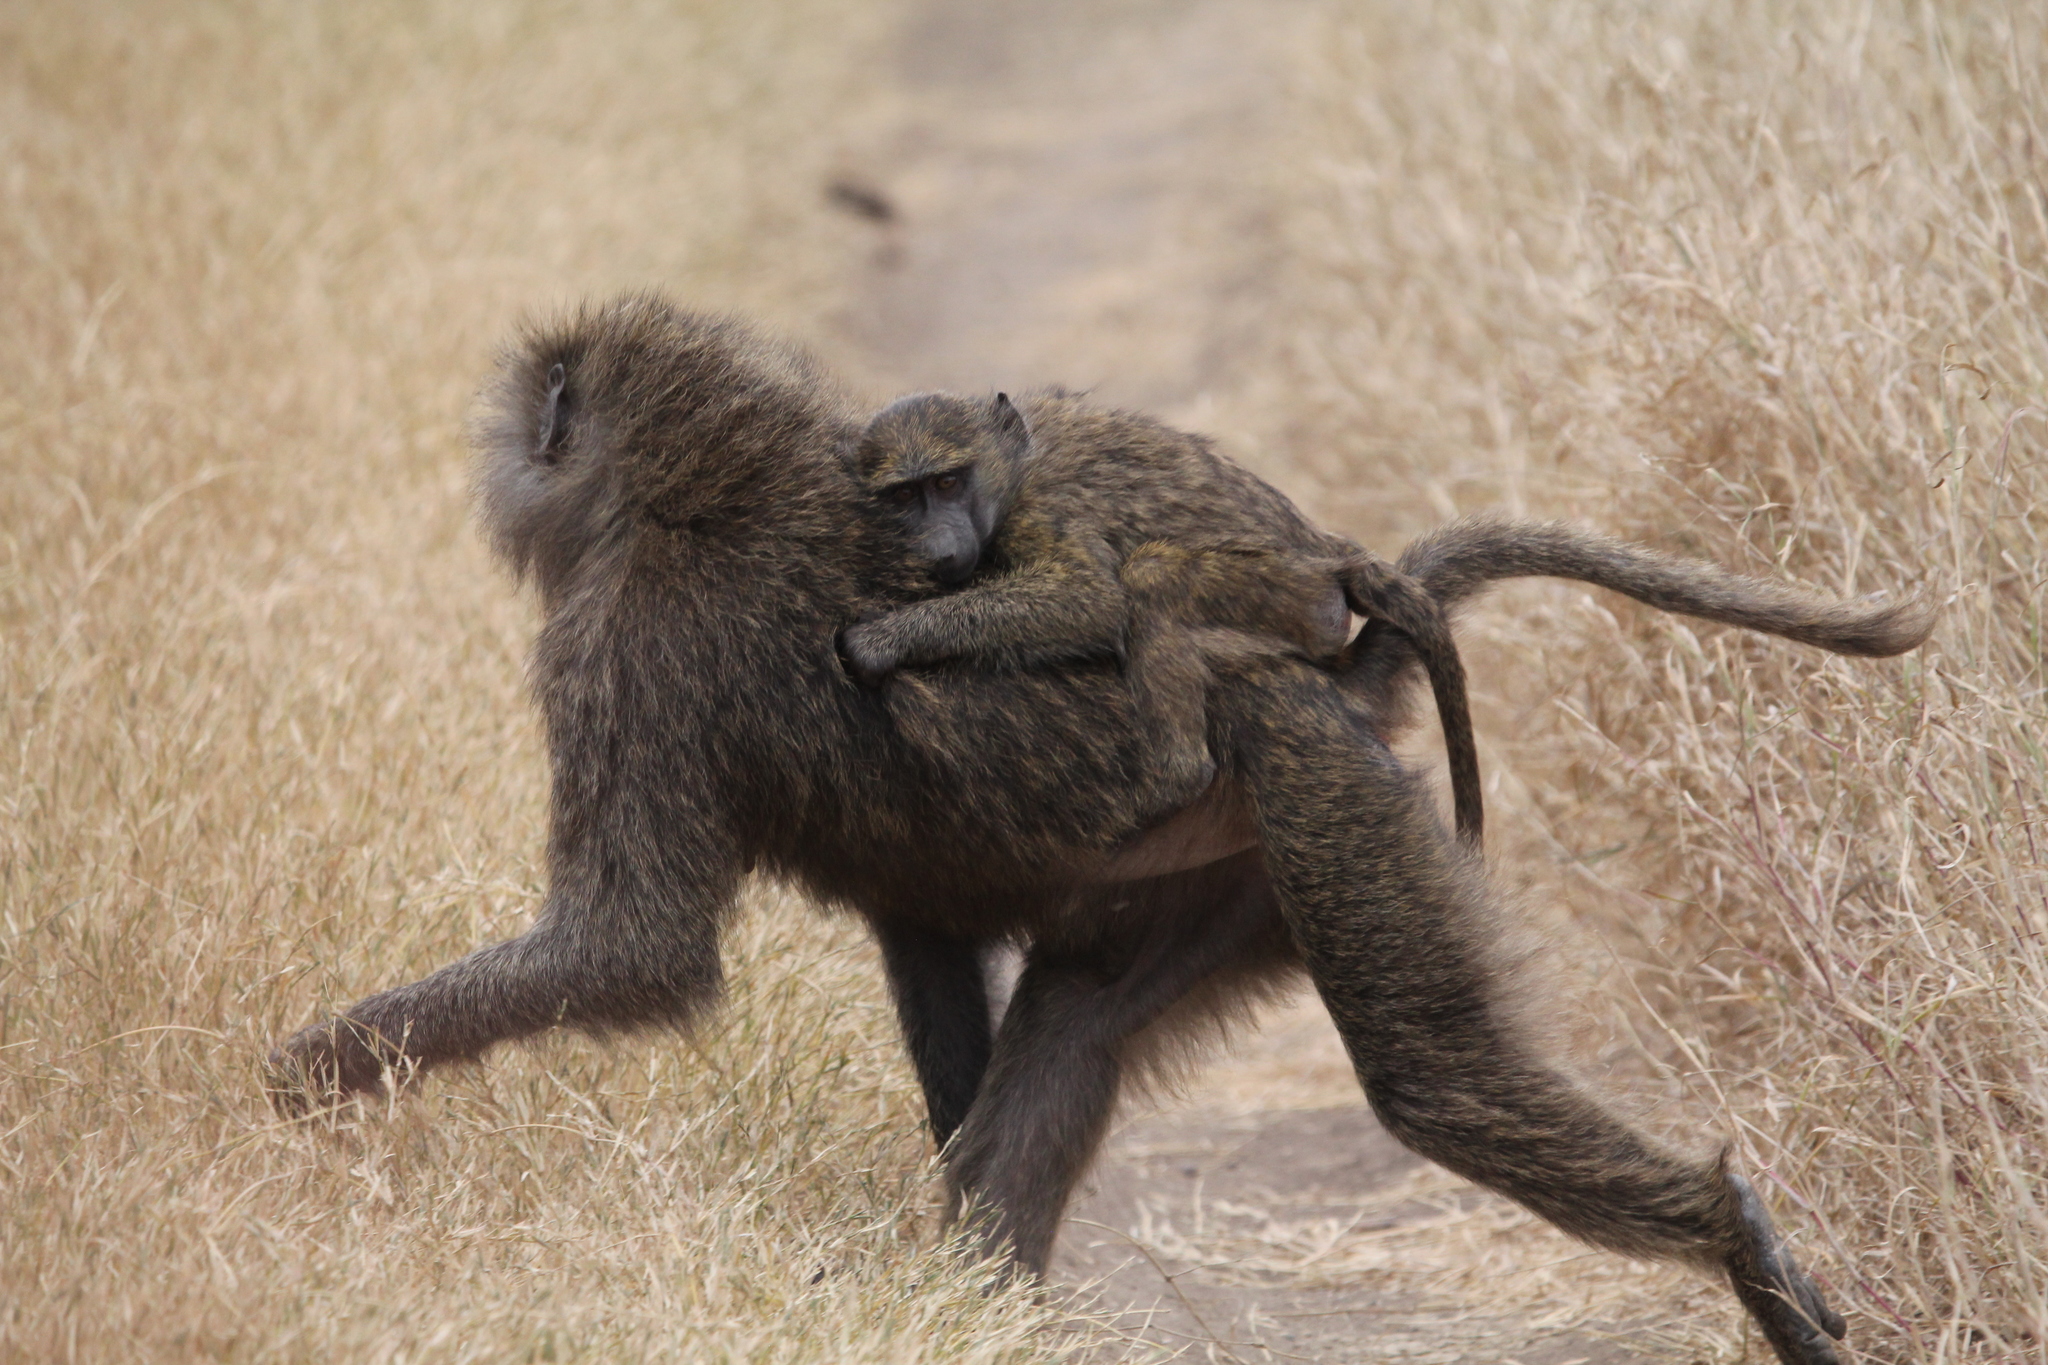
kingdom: Animalia
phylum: Chordata
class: Mammalia
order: Primates
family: Cercopithecidae
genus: Papio
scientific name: Papio anubis
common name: Olive baboon
